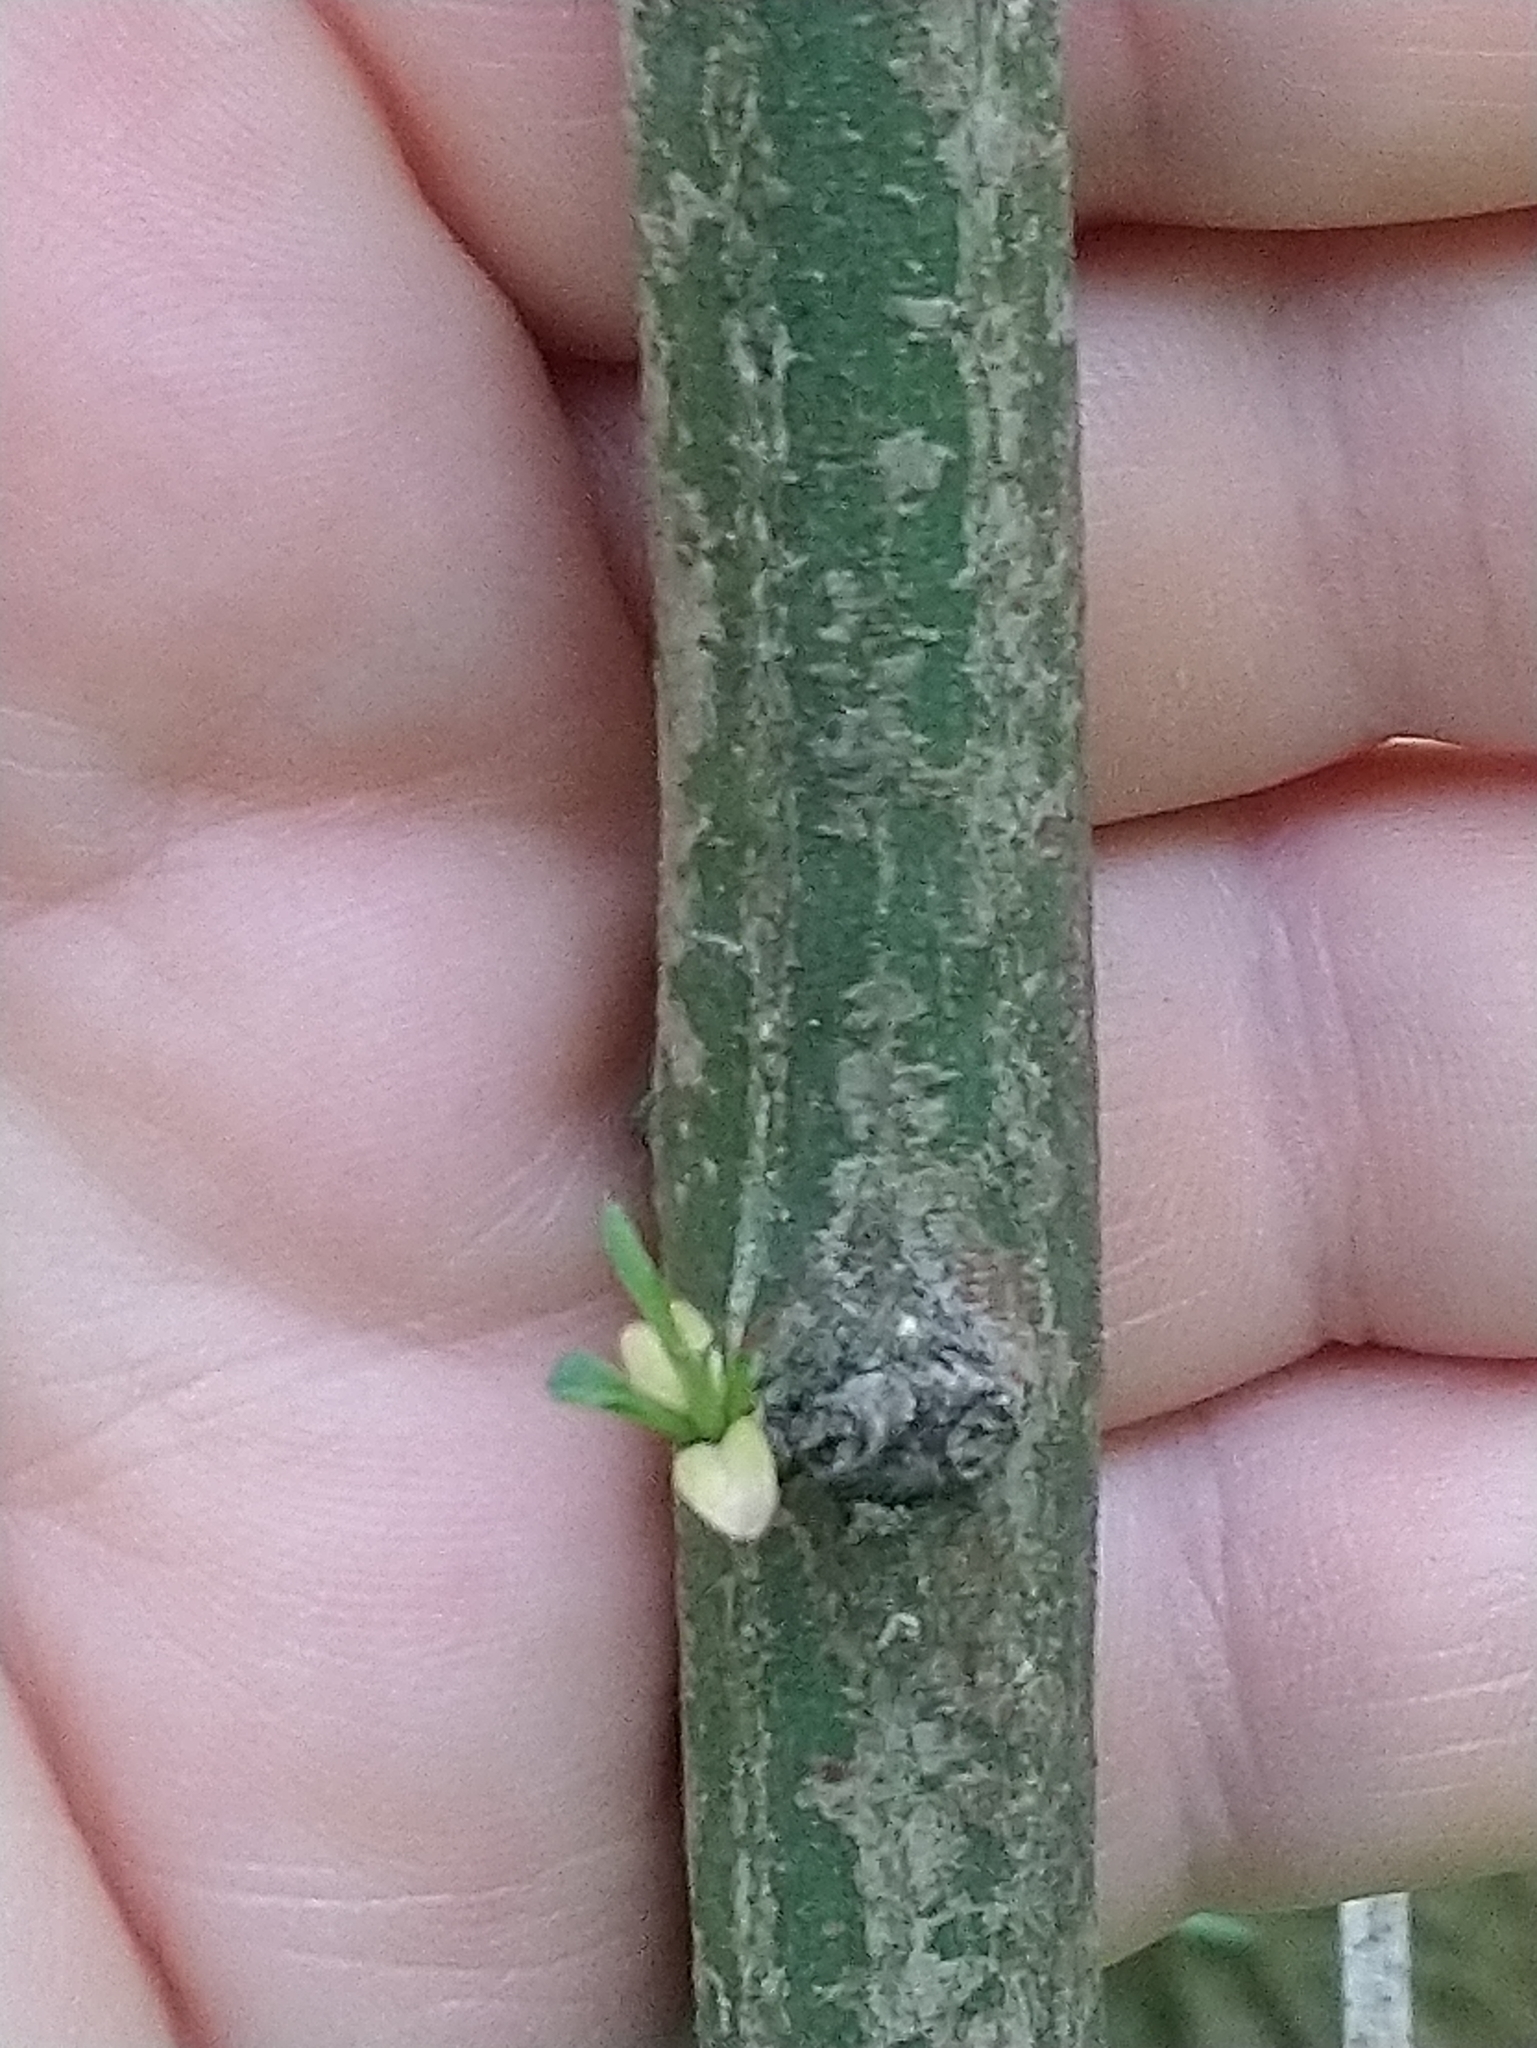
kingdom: Plantae
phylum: Tracheophyta
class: Magnoliopsida
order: Celastrales
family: Celastraceae
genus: Euonymus
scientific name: Euonymus europaeus
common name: Spindle
